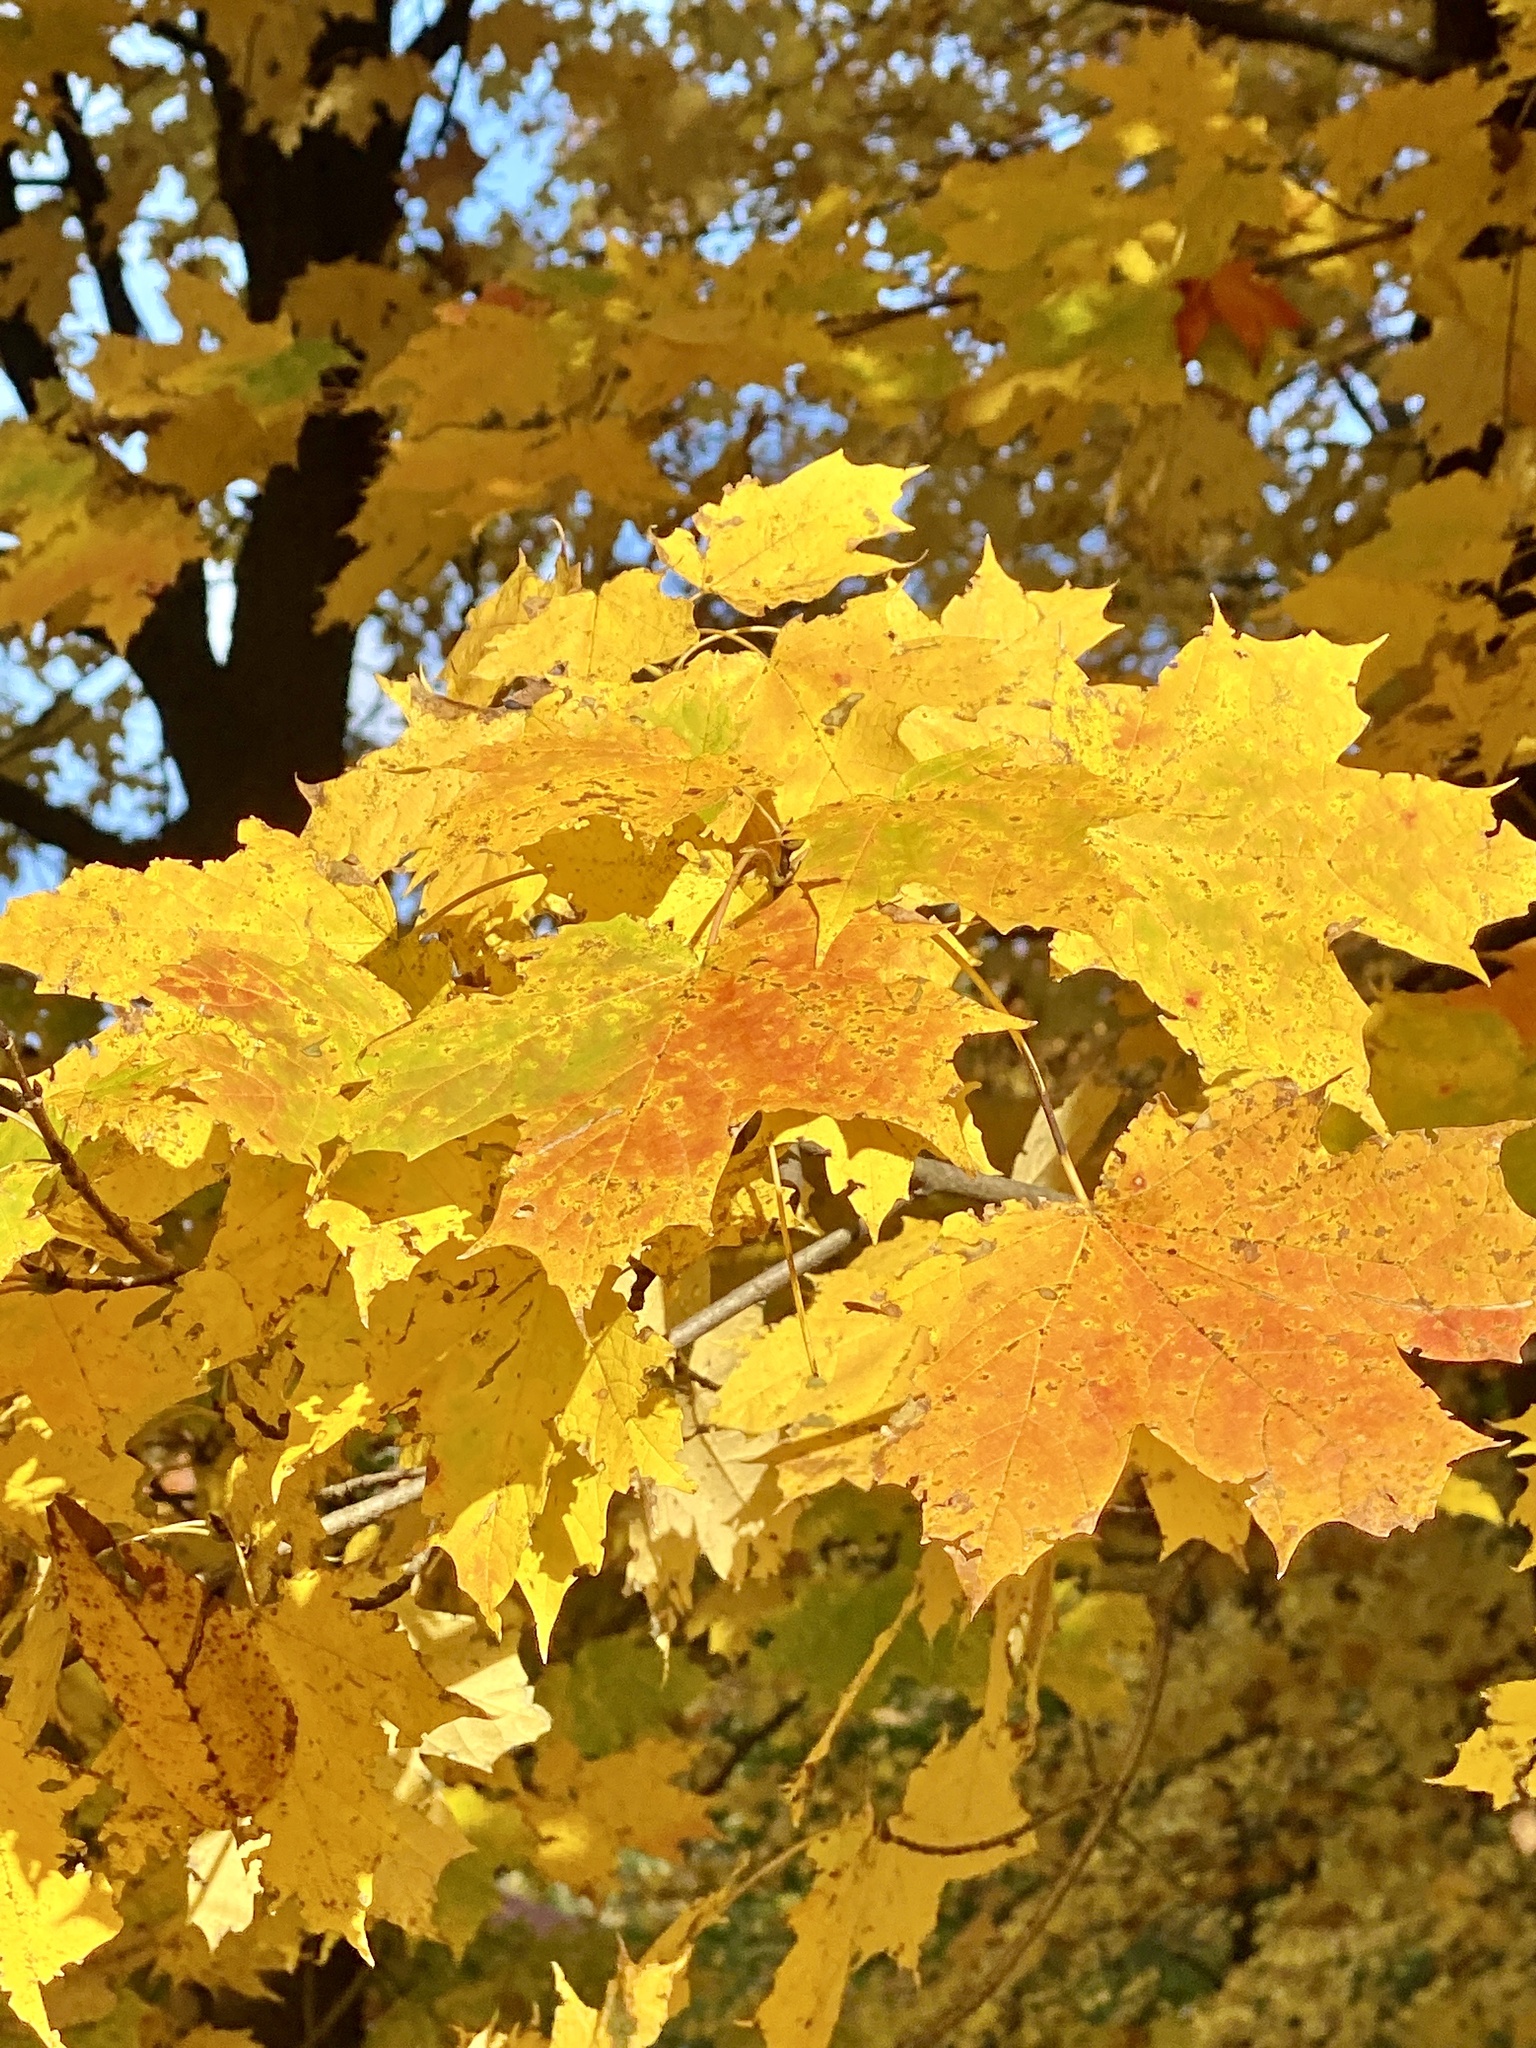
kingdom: Plantae
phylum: Tracheophyta
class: Magnoliopsida
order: Sapindales
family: Sapindaceae
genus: Acer
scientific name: Acer saccharum
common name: Sugar maple
